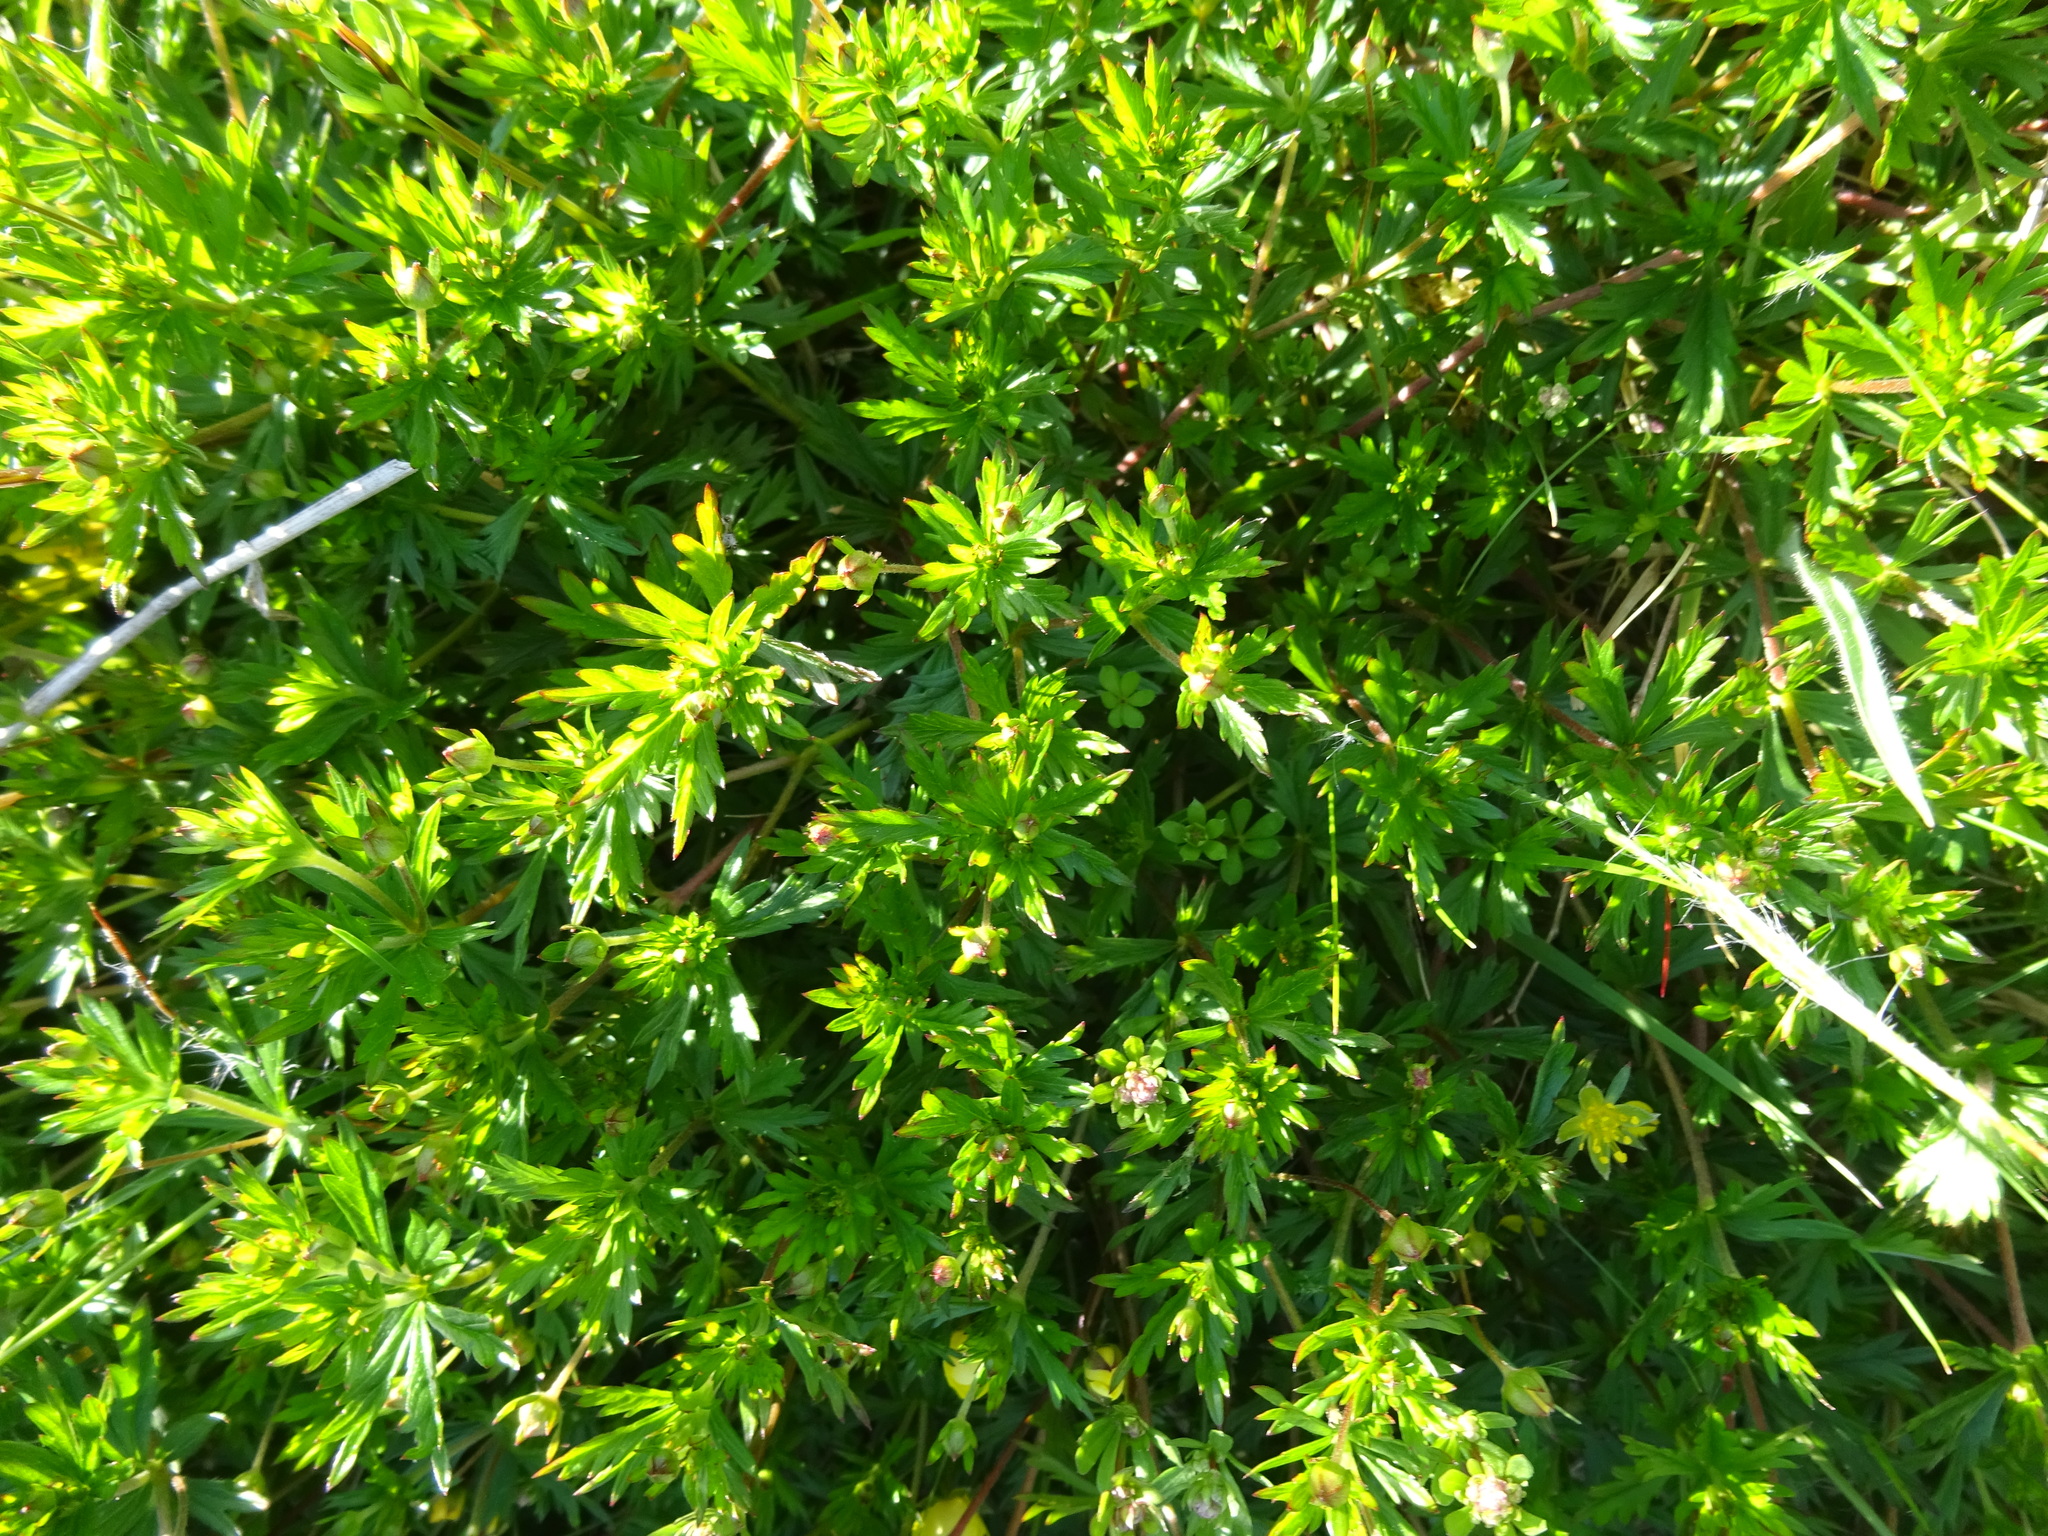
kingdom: Plantae
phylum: Tracheophyta
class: Magnoliopsida
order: Rosales
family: Rosaceae
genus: Potentilla
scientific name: Potentilla erecta
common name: Tormentil
